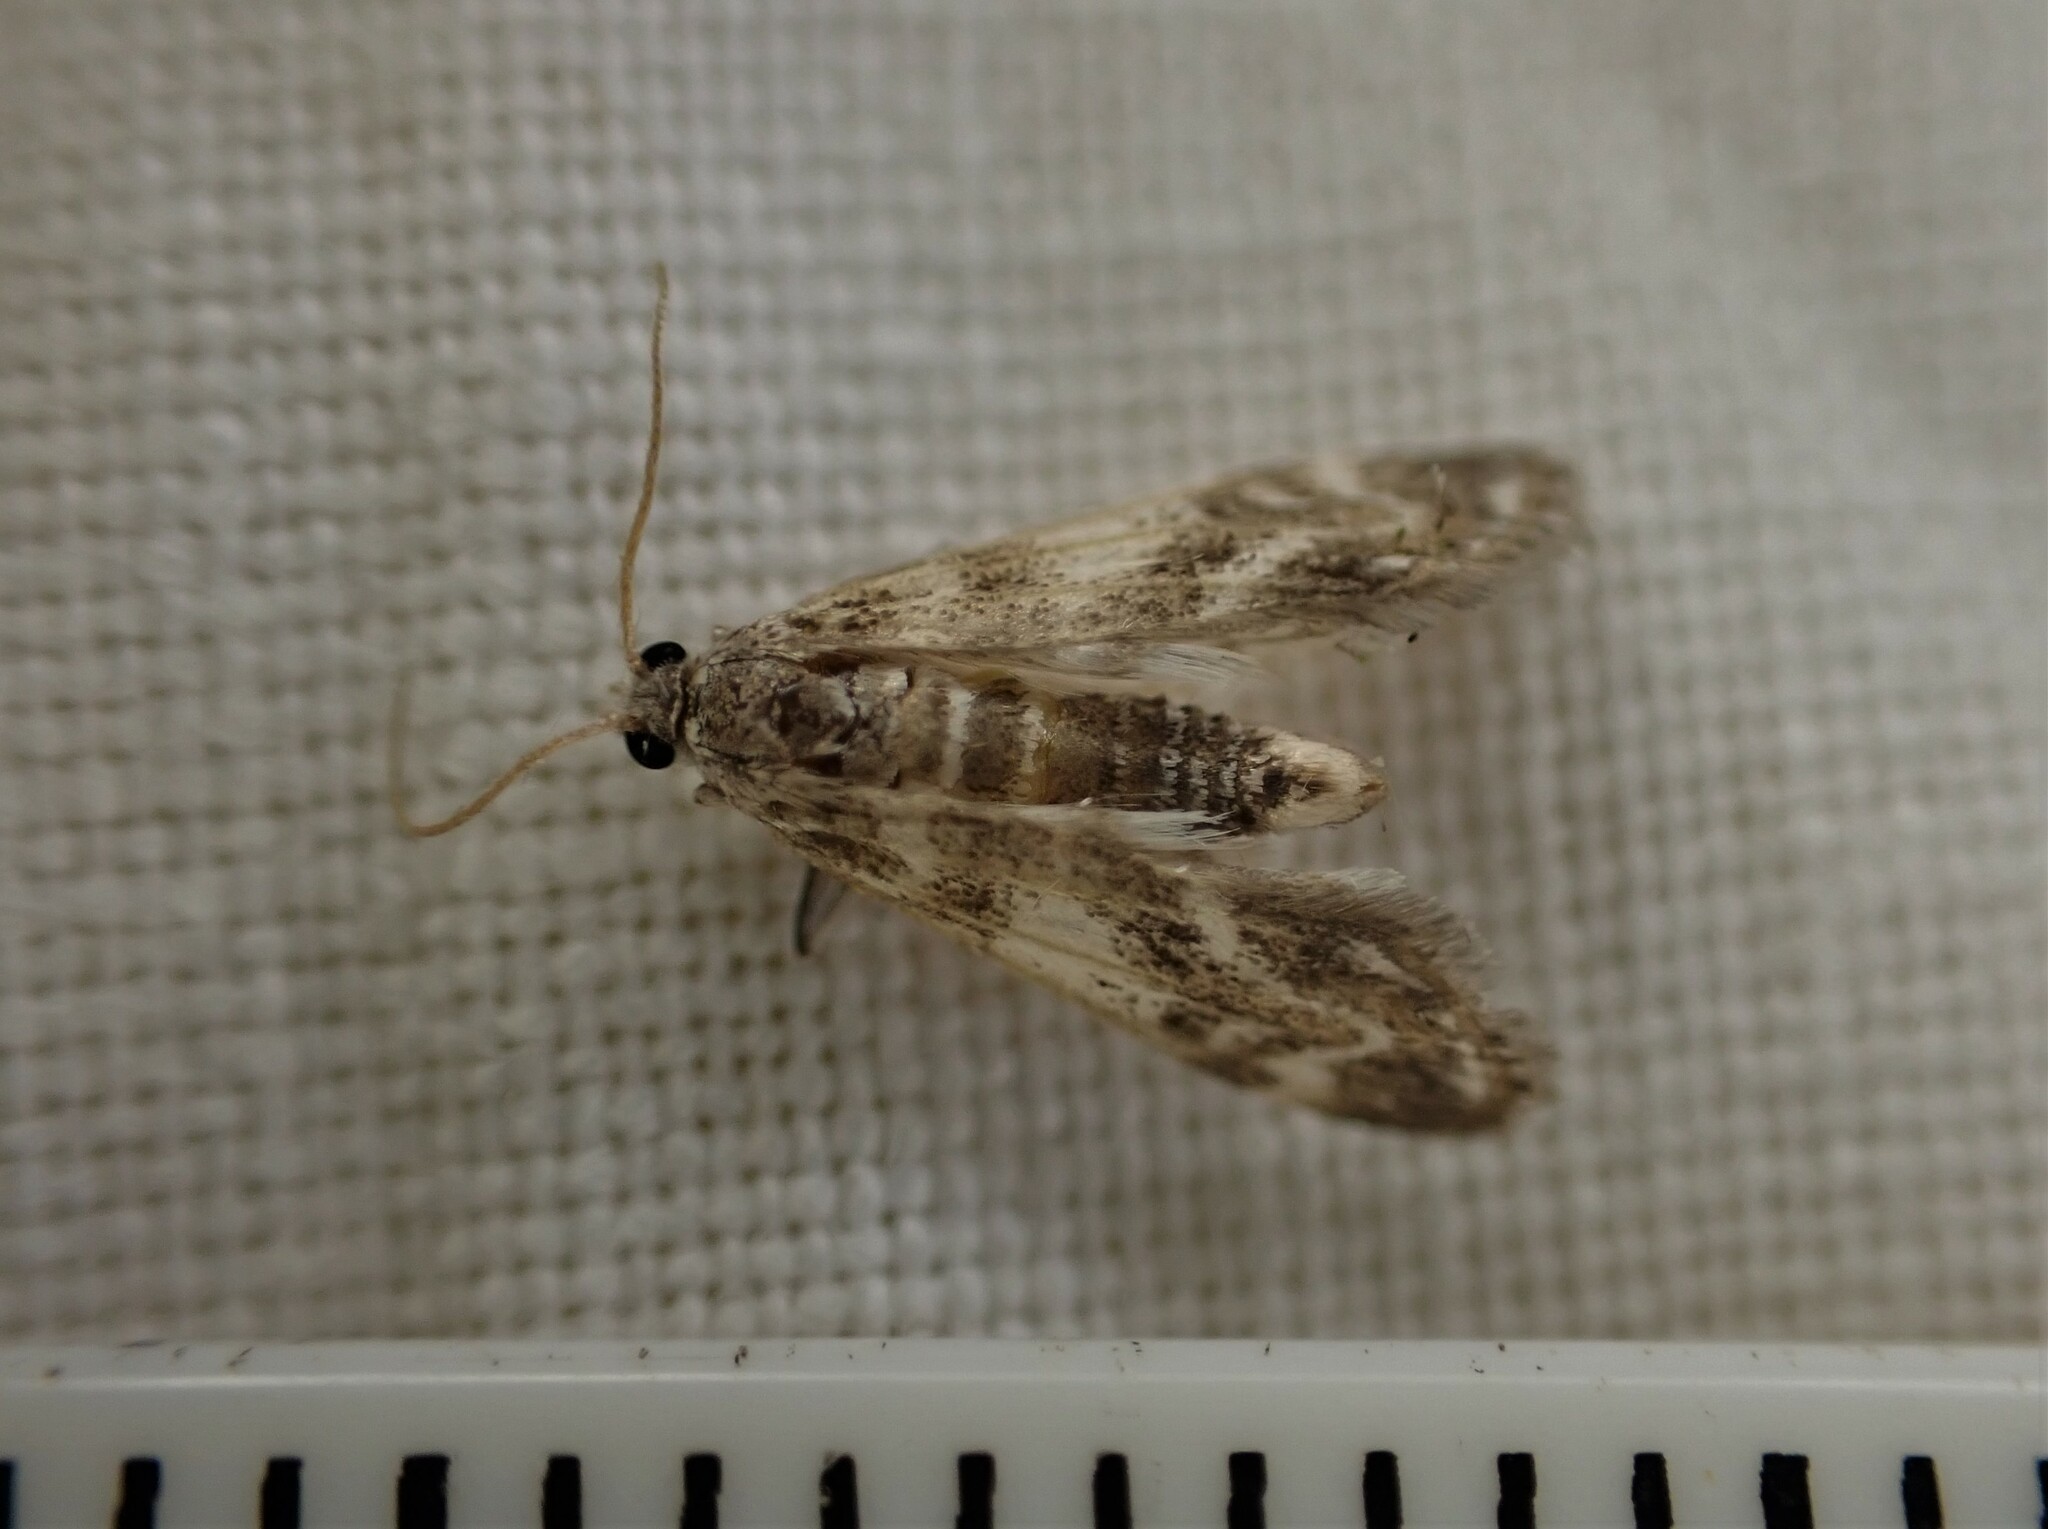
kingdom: Animalia
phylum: Arthropoda
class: Insecta
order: Lepidoptera
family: Crambidae
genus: Hygraula
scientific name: Hygraula nitens
